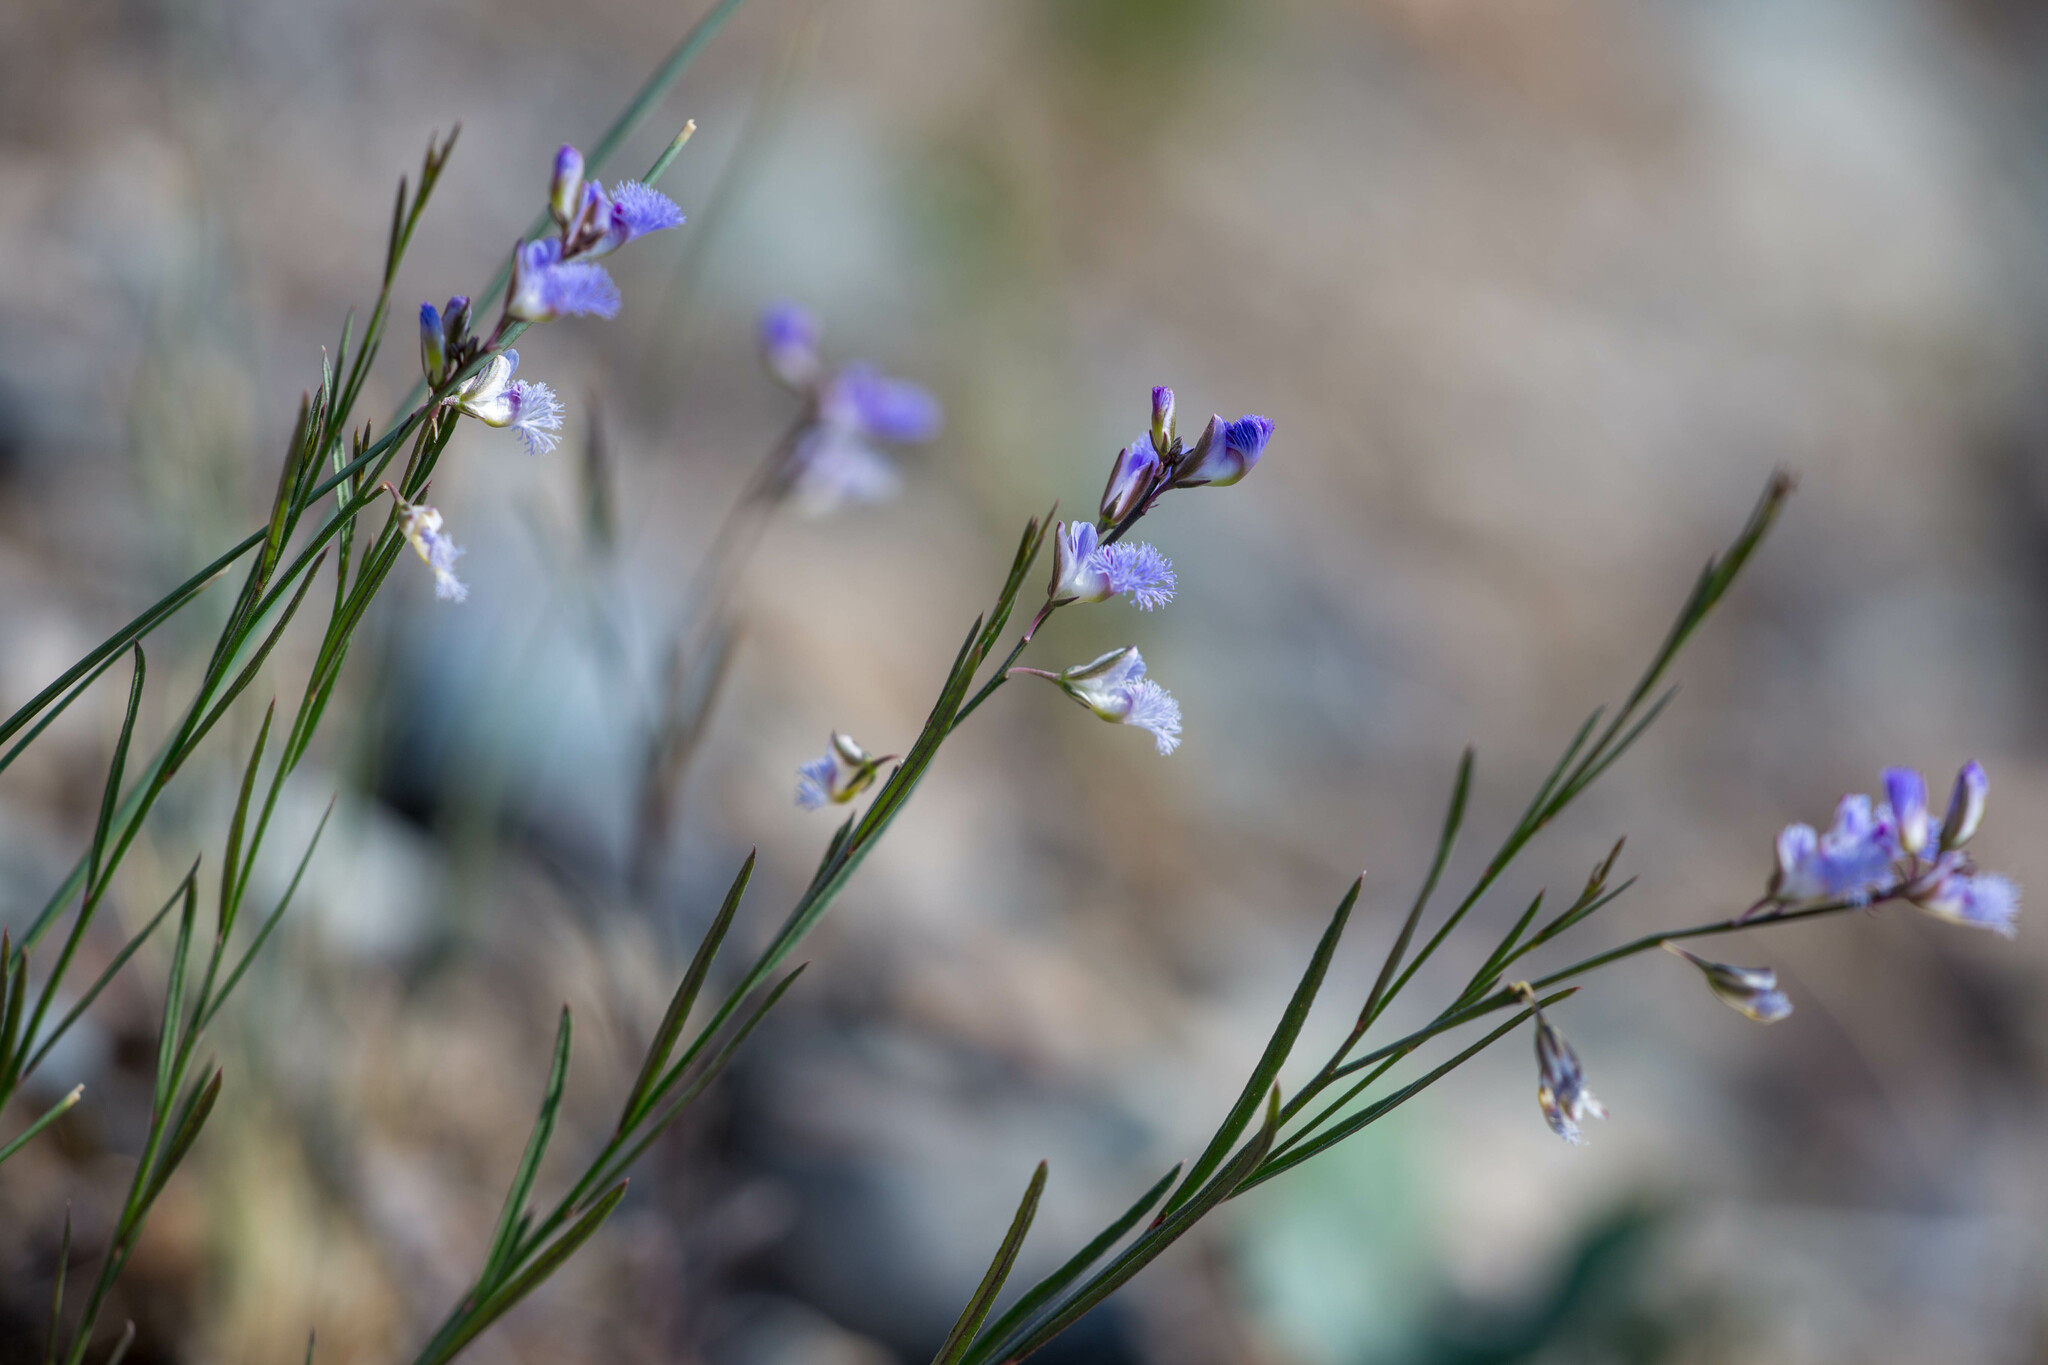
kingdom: Plantae
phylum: Tracheophyta
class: Magnoliopsida
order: Fabales
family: Polygalaceae
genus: Polygala
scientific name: Polygala tenuifolia
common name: Chinese senega-root
